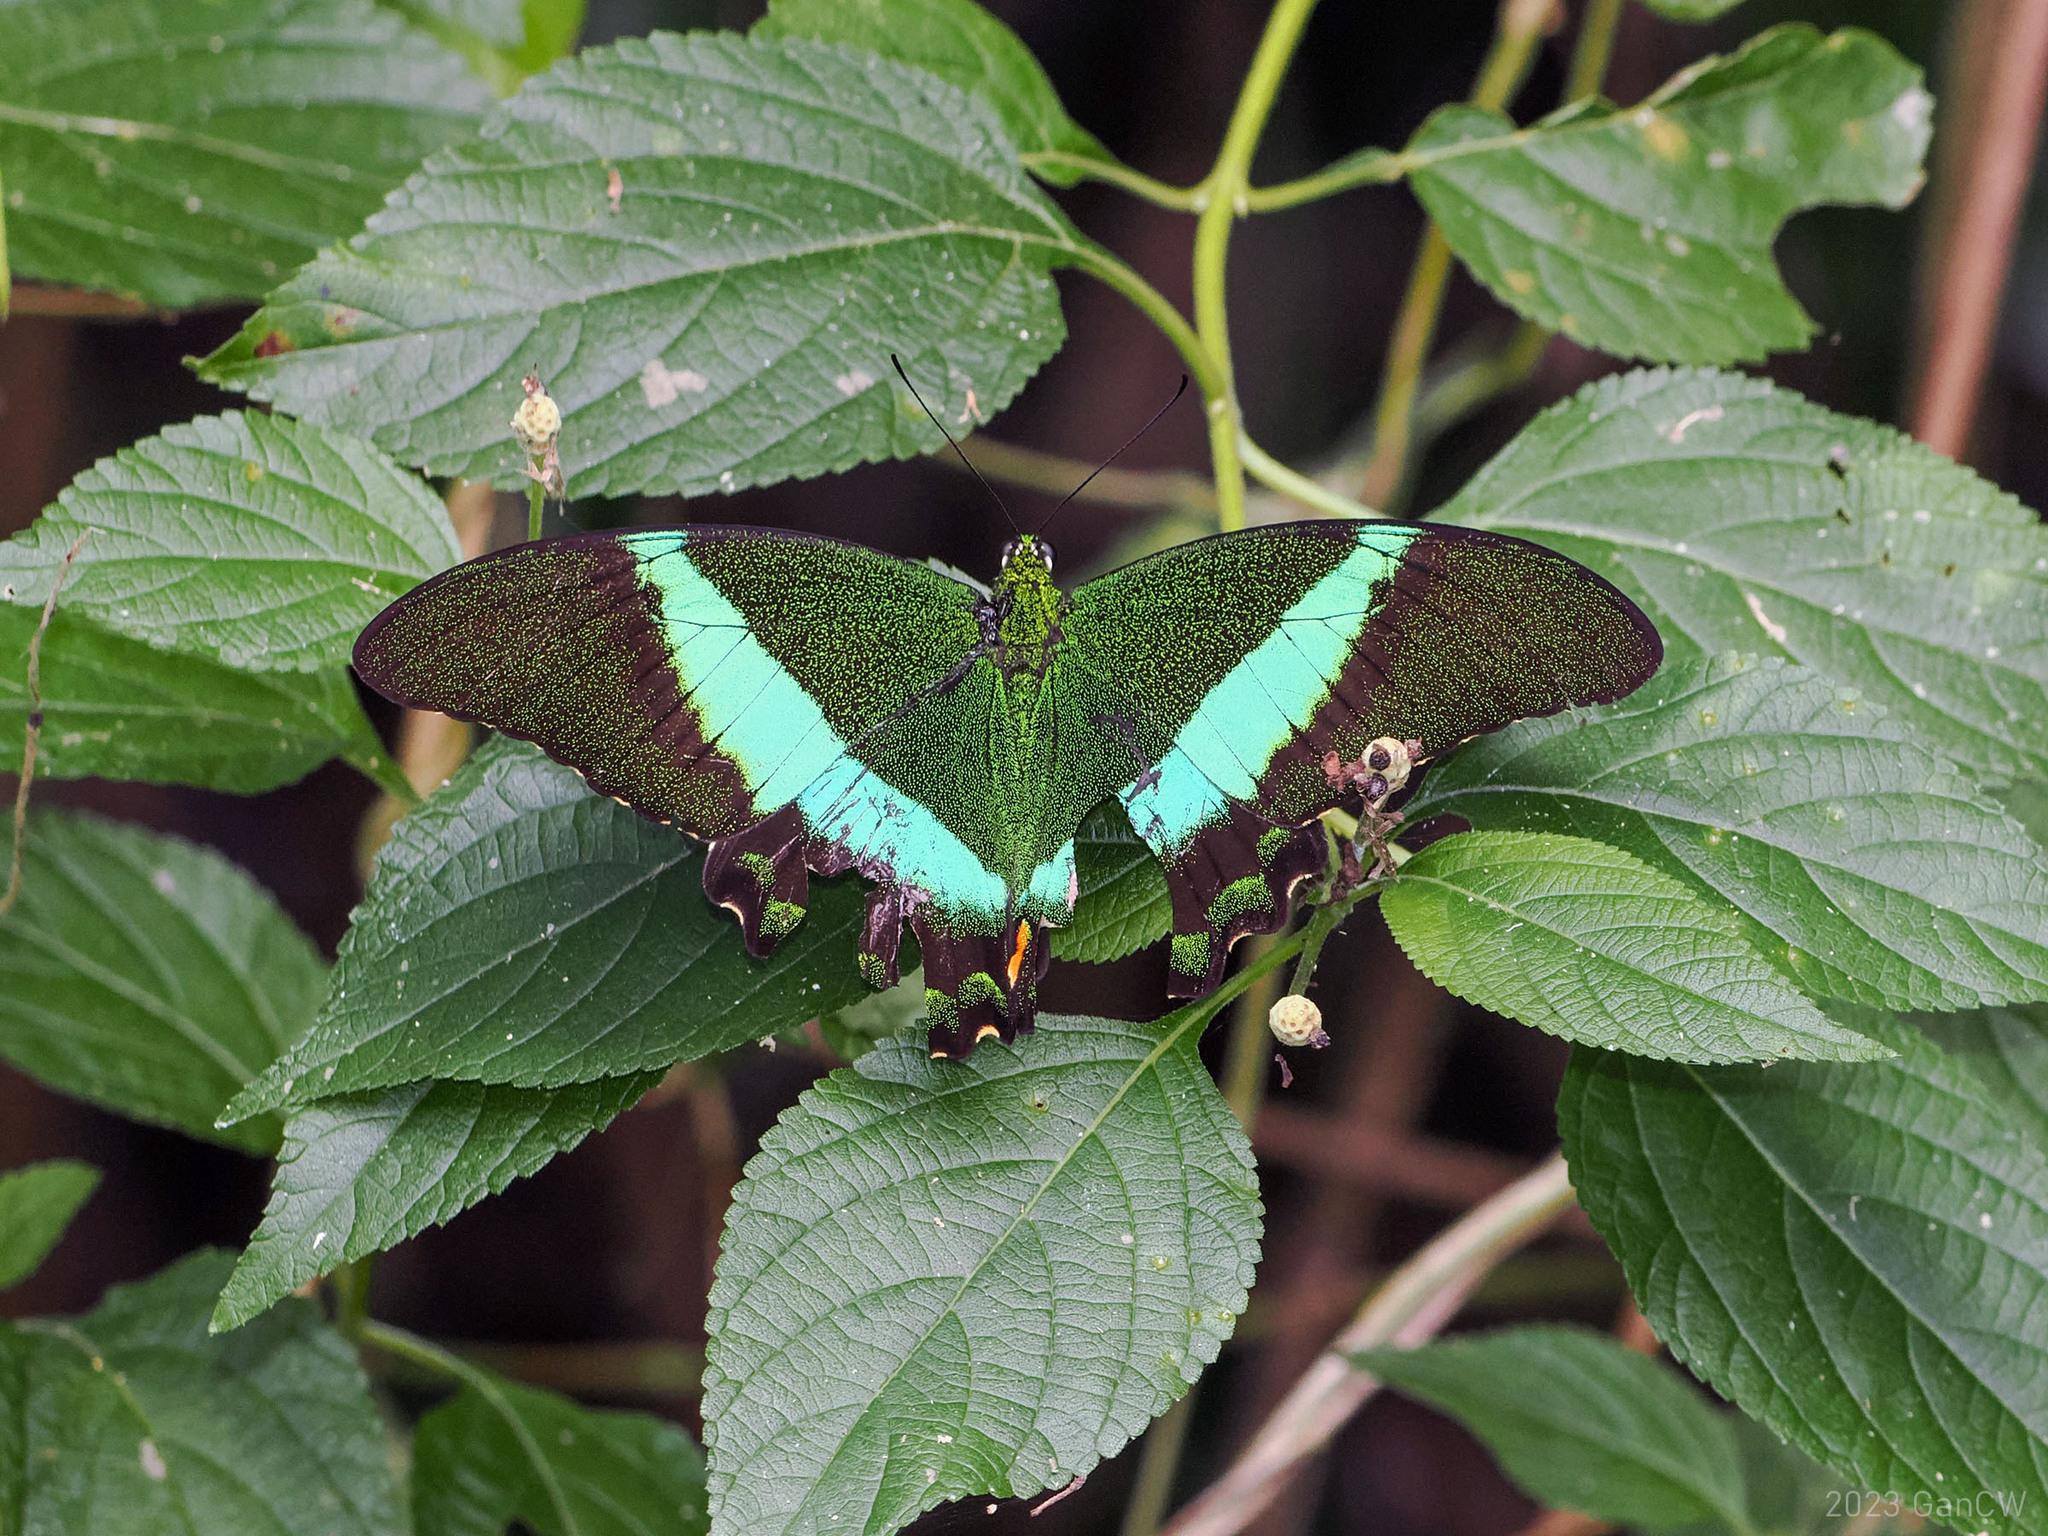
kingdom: Animalia
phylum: Arthropoda
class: Insecta
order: Lepidoptera
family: Papilionidae
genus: Papilio
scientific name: Papilio daedalus
